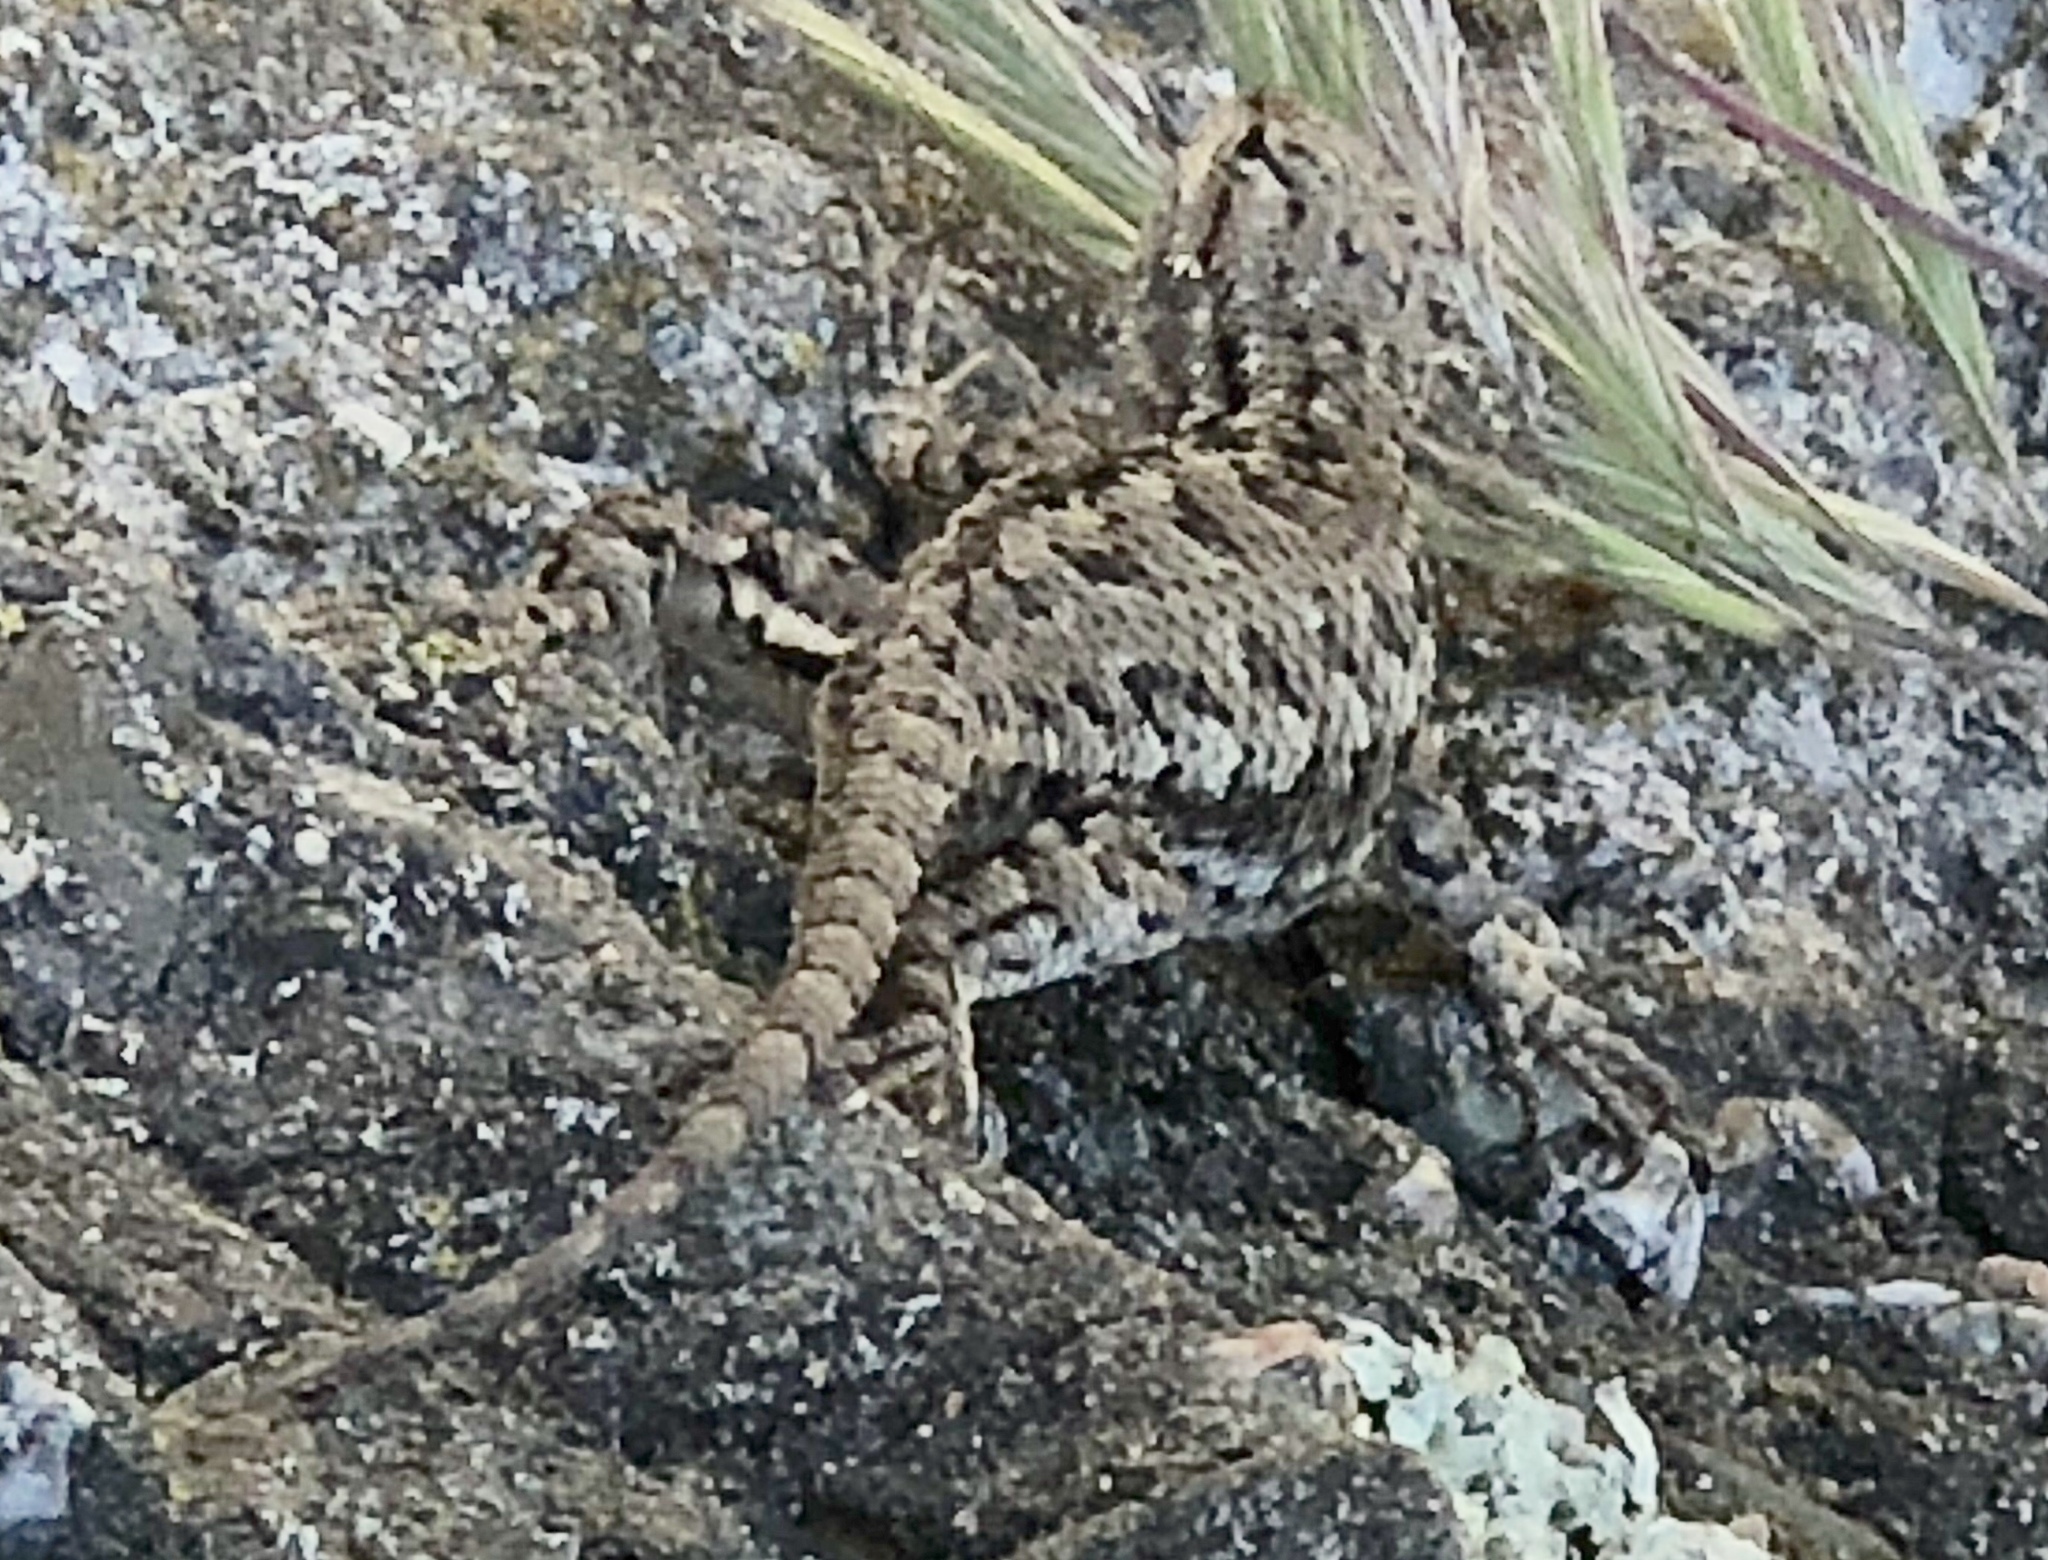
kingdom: Animalia
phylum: Chordata
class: Squamata
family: Phrynosomatidae
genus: Sceloporus
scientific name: Sceloporus occidentalis
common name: Western fence lizard
